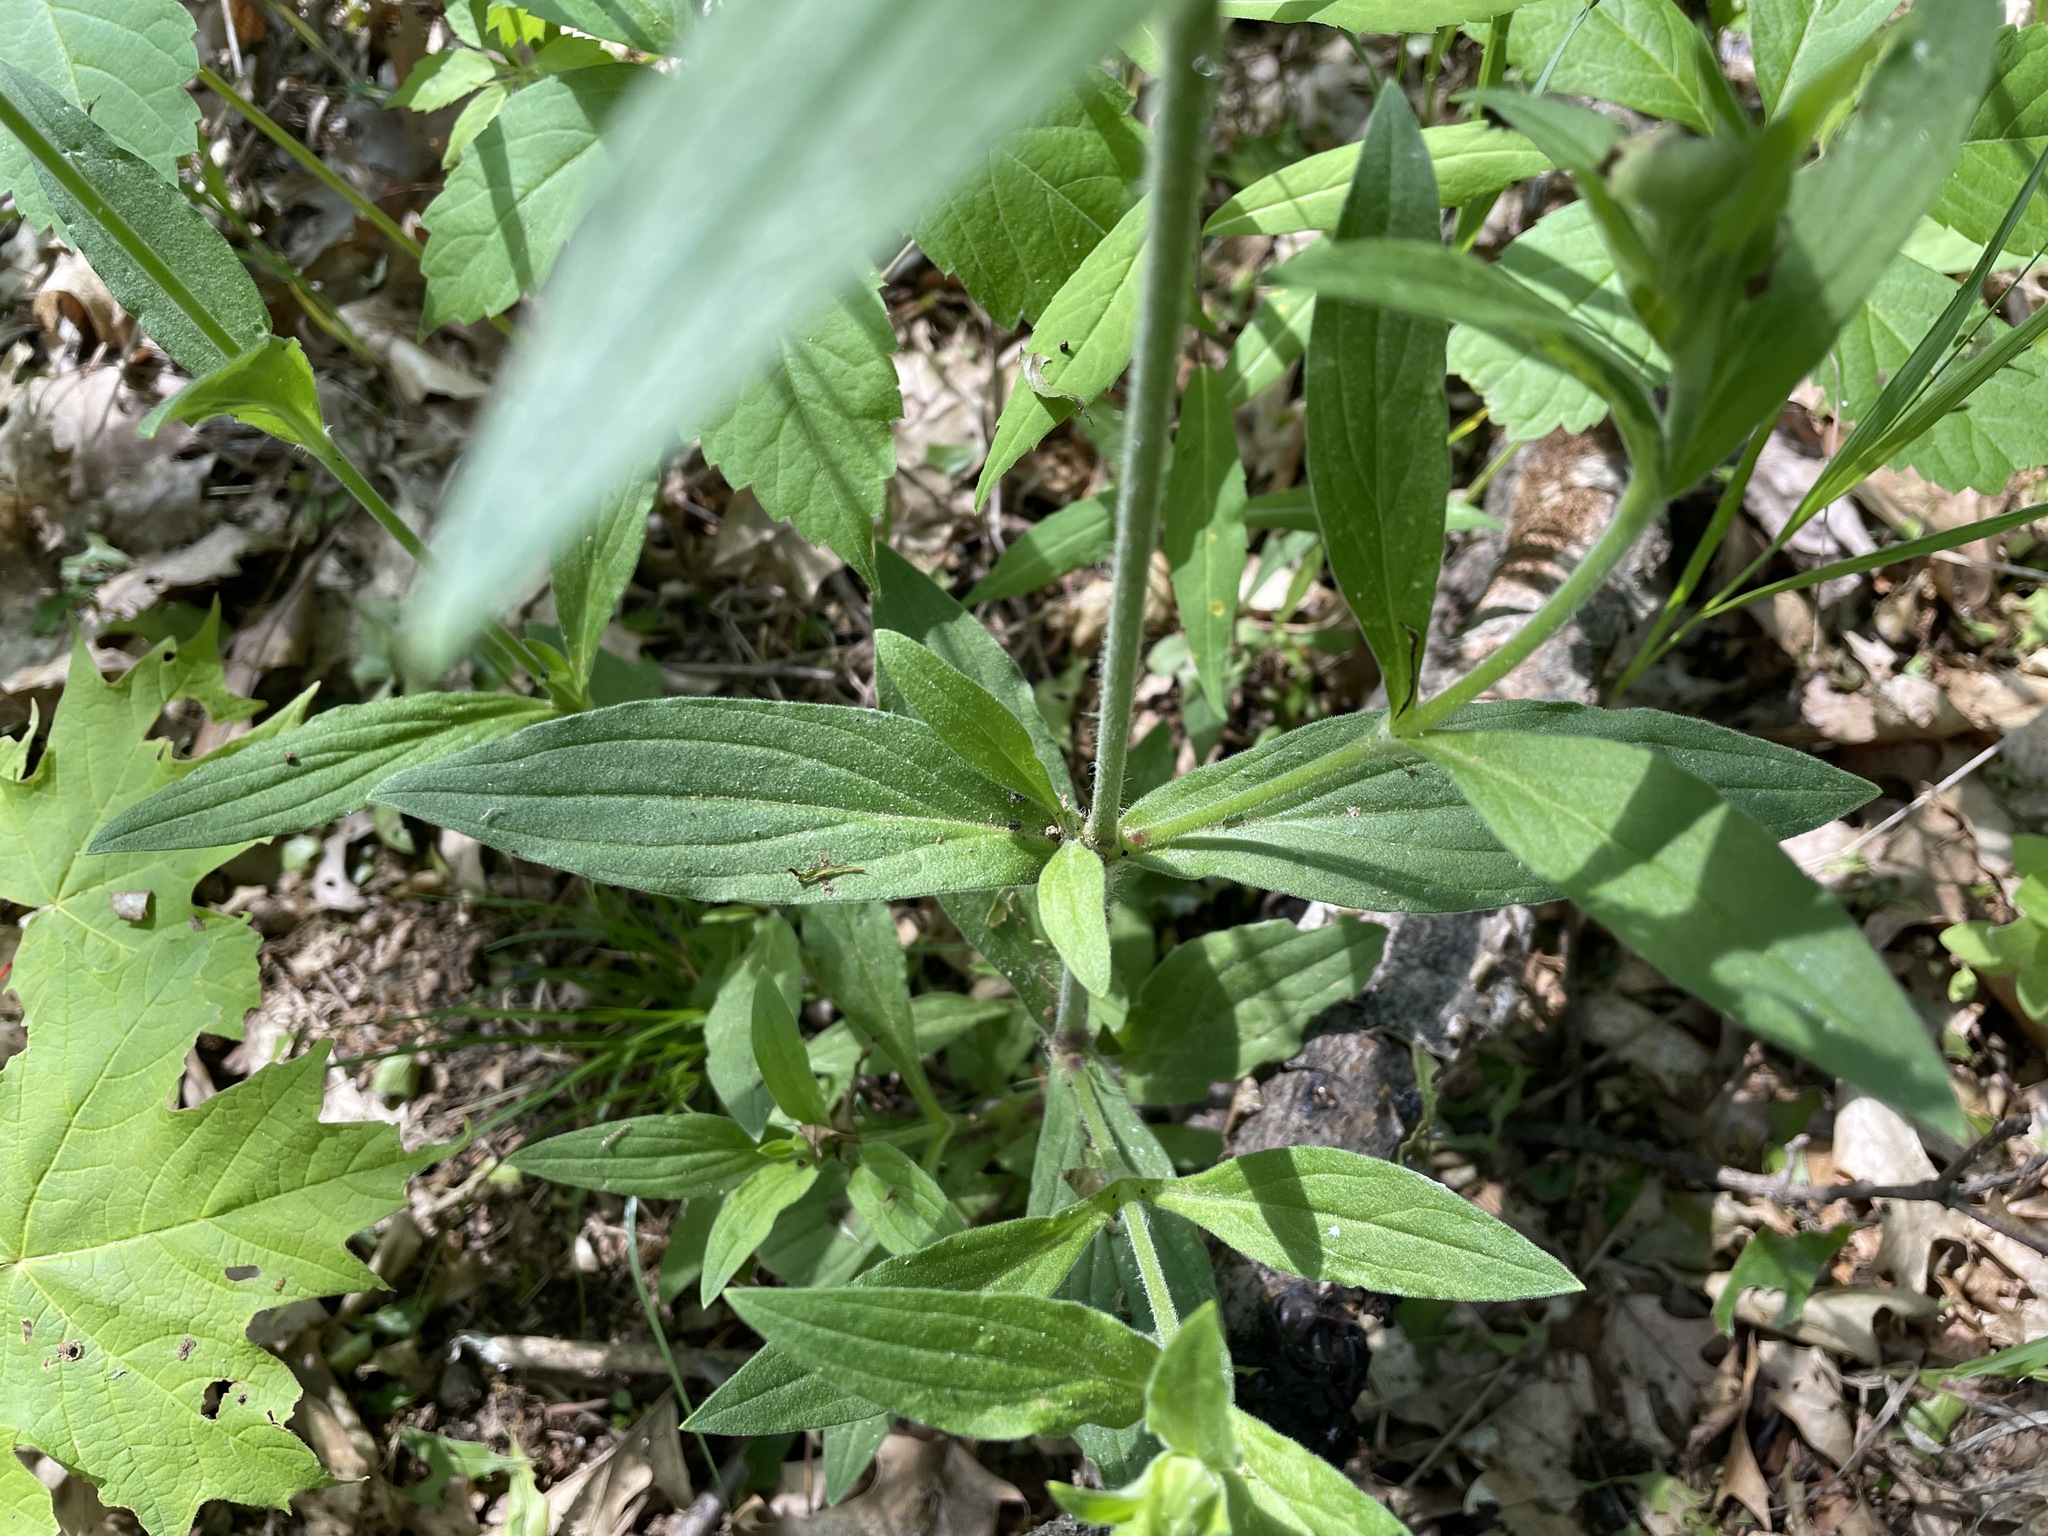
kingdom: Plantae
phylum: Tracheophyta
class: Magnoliopsida
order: Caryophyllales
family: Caryophyllaceae
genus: Silene
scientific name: Silene latifolia
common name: White campion
